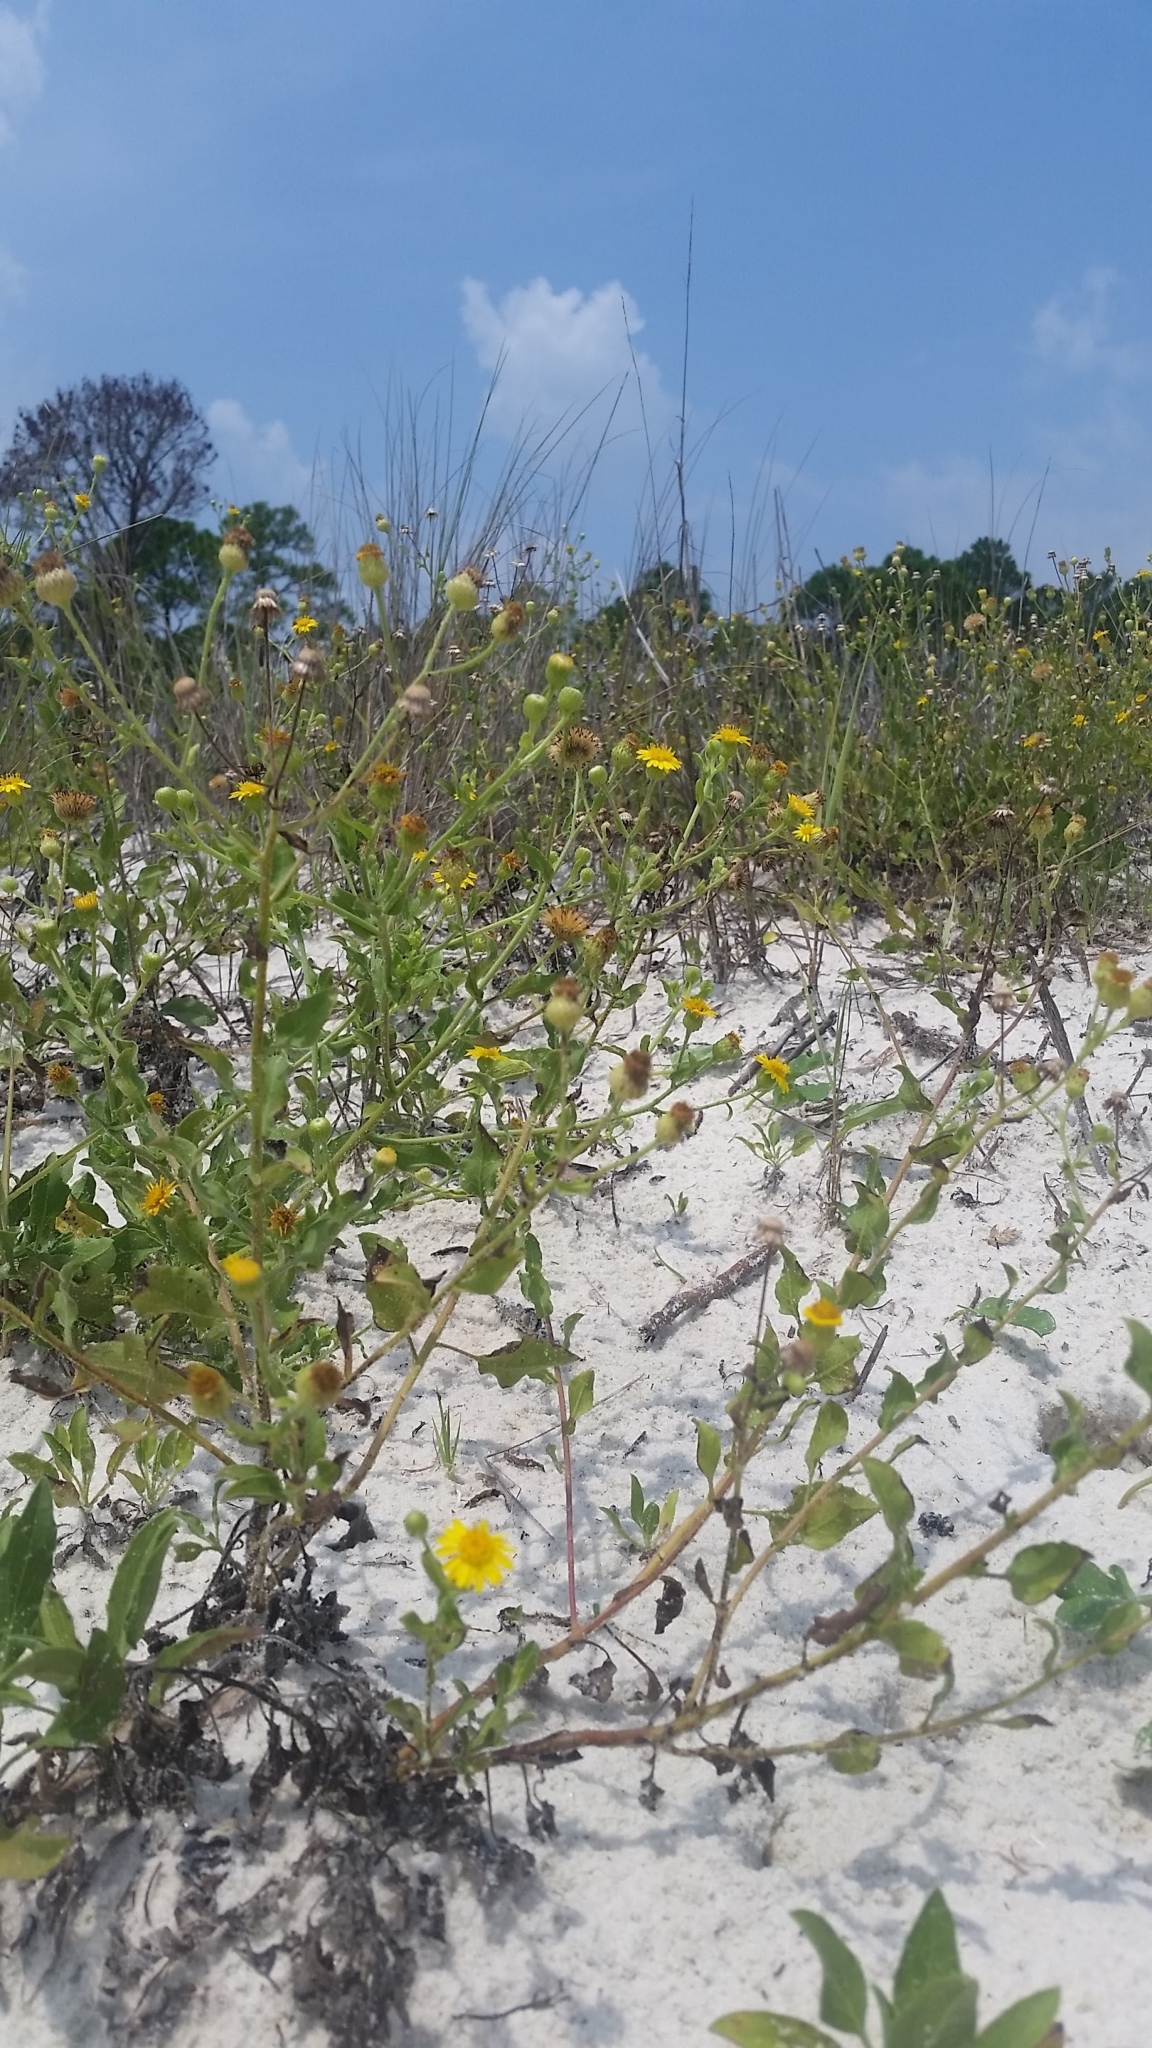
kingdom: Plantae
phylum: Tracheophyta
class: Magnoliopsida
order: Asterales
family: Asteraceae
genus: Heterotheca
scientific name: Heterotheca subaxillaris
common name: Camphorweed
